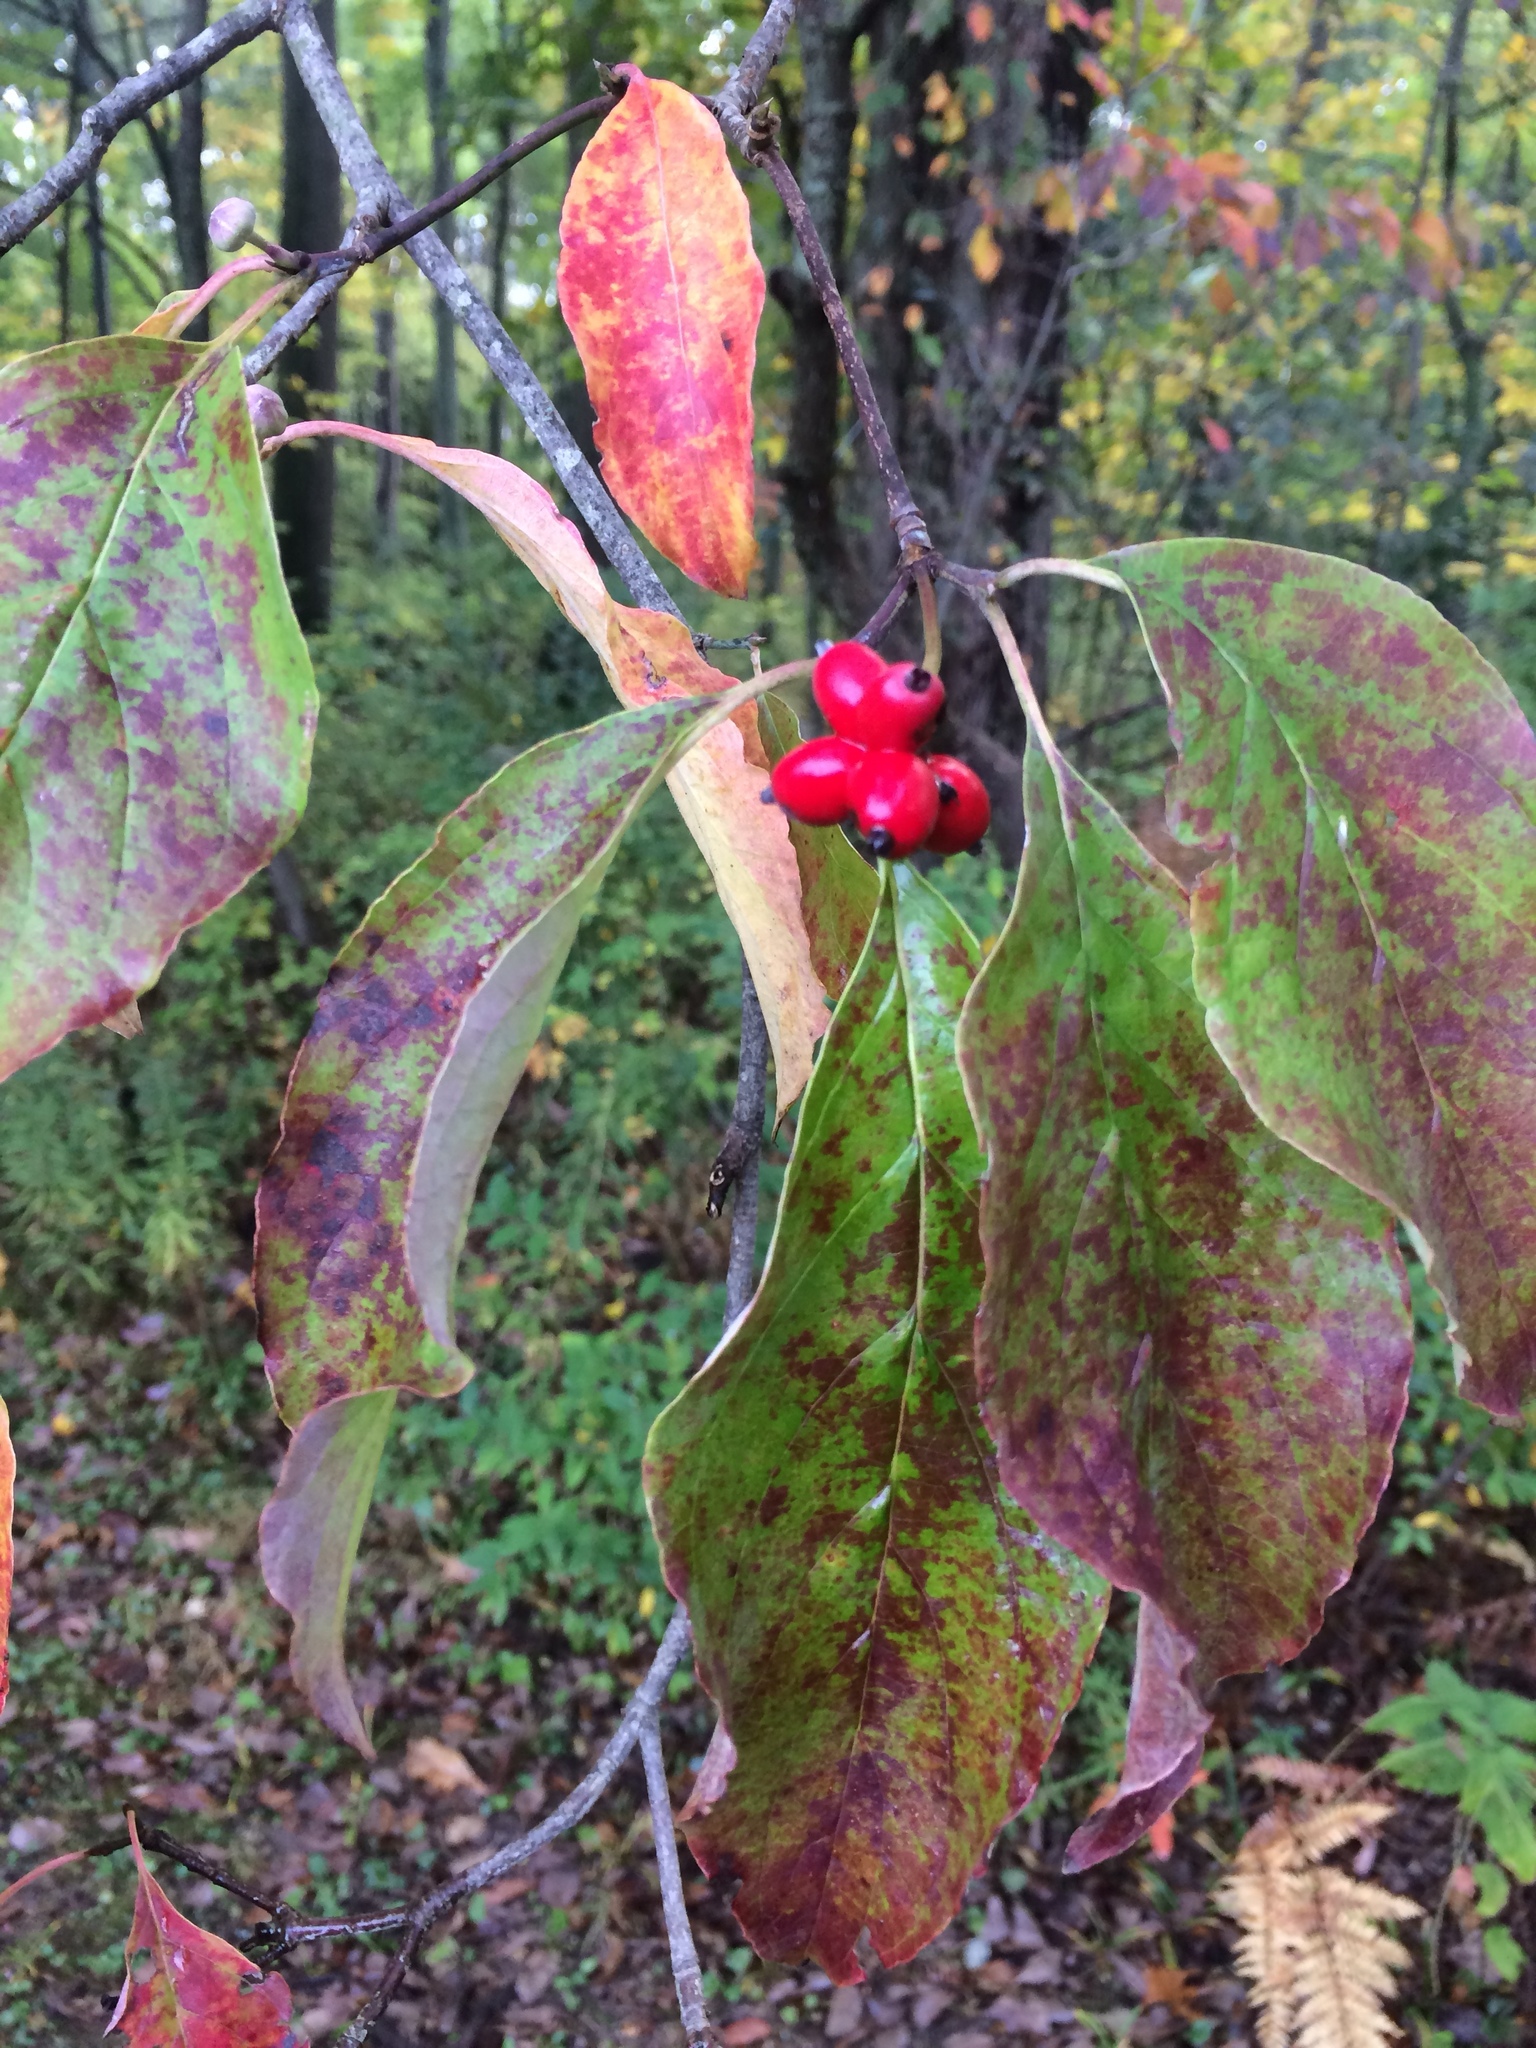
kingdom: Plantae
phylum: Tracheophyta
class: Magnoliopsida
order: Cornales
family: Cornaceae
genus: Cornus
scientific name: Cornus florida
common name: Flowering dogwood
